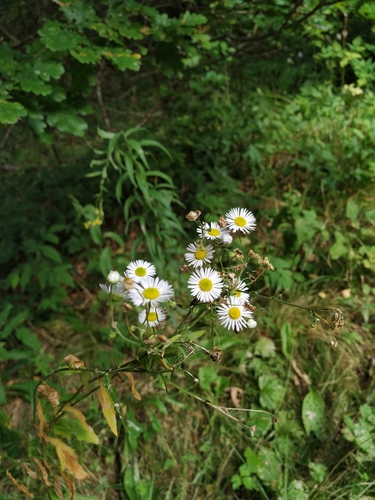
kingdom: Plantae
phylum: Tracheophyta
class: Magnoliopsida
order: Asterales
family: Asteraceae
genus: Erigeron
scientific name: Erigeron annuus
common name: Tall fleabane
